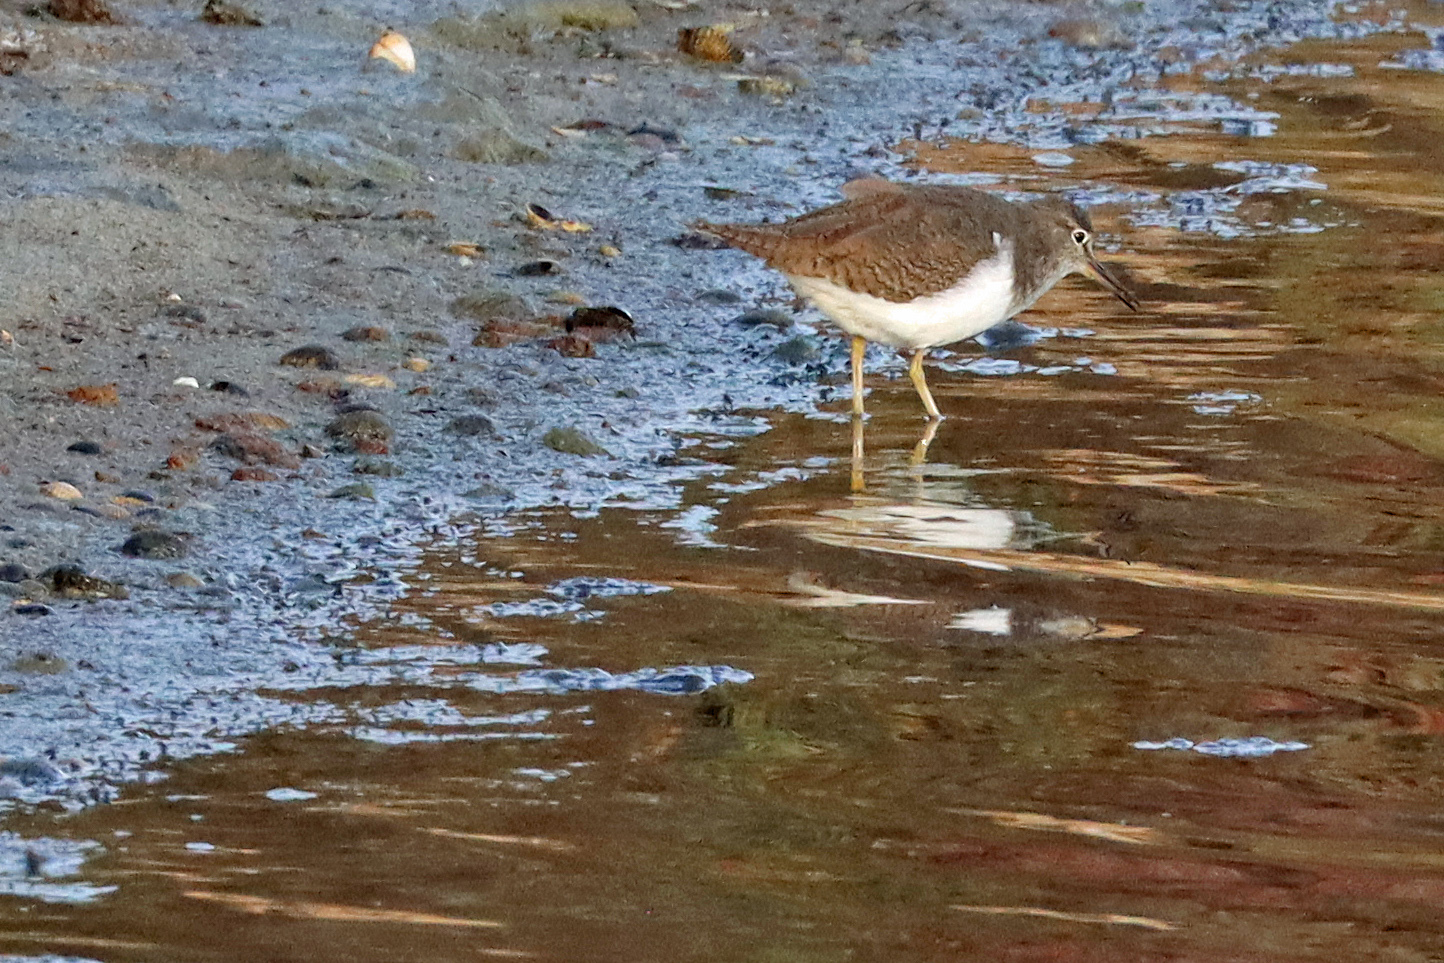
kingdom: Animalia
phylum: Chordata
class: Aves
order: Charadriiformes
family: Scolopacidae
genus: Actitis
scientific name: Actitis hypoleucos
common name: Common sandpiper
